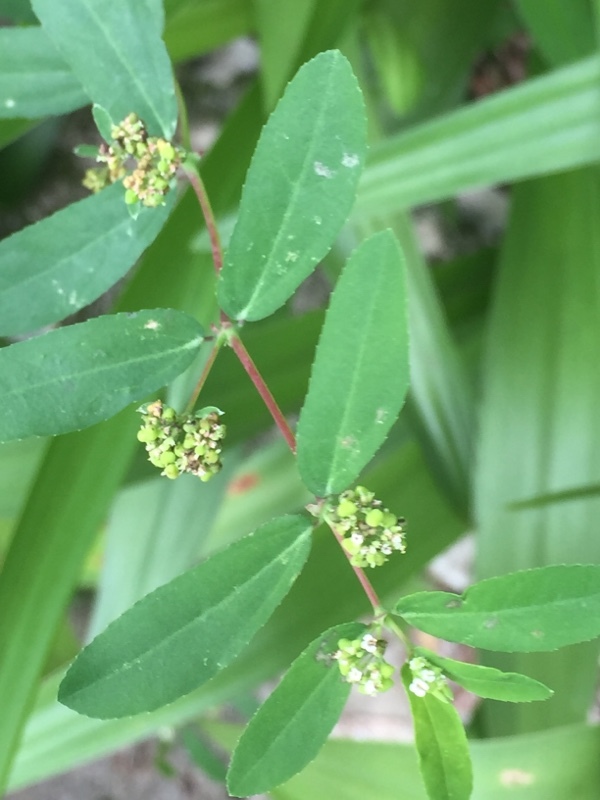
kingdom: Plantae
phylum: Tracheophyta
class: Magnoliopsida
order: Malpighiales
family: Euphorbiaceae
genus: Euphorbia
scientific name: Euphorbia hypericifolia
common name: Graceful sandmat
